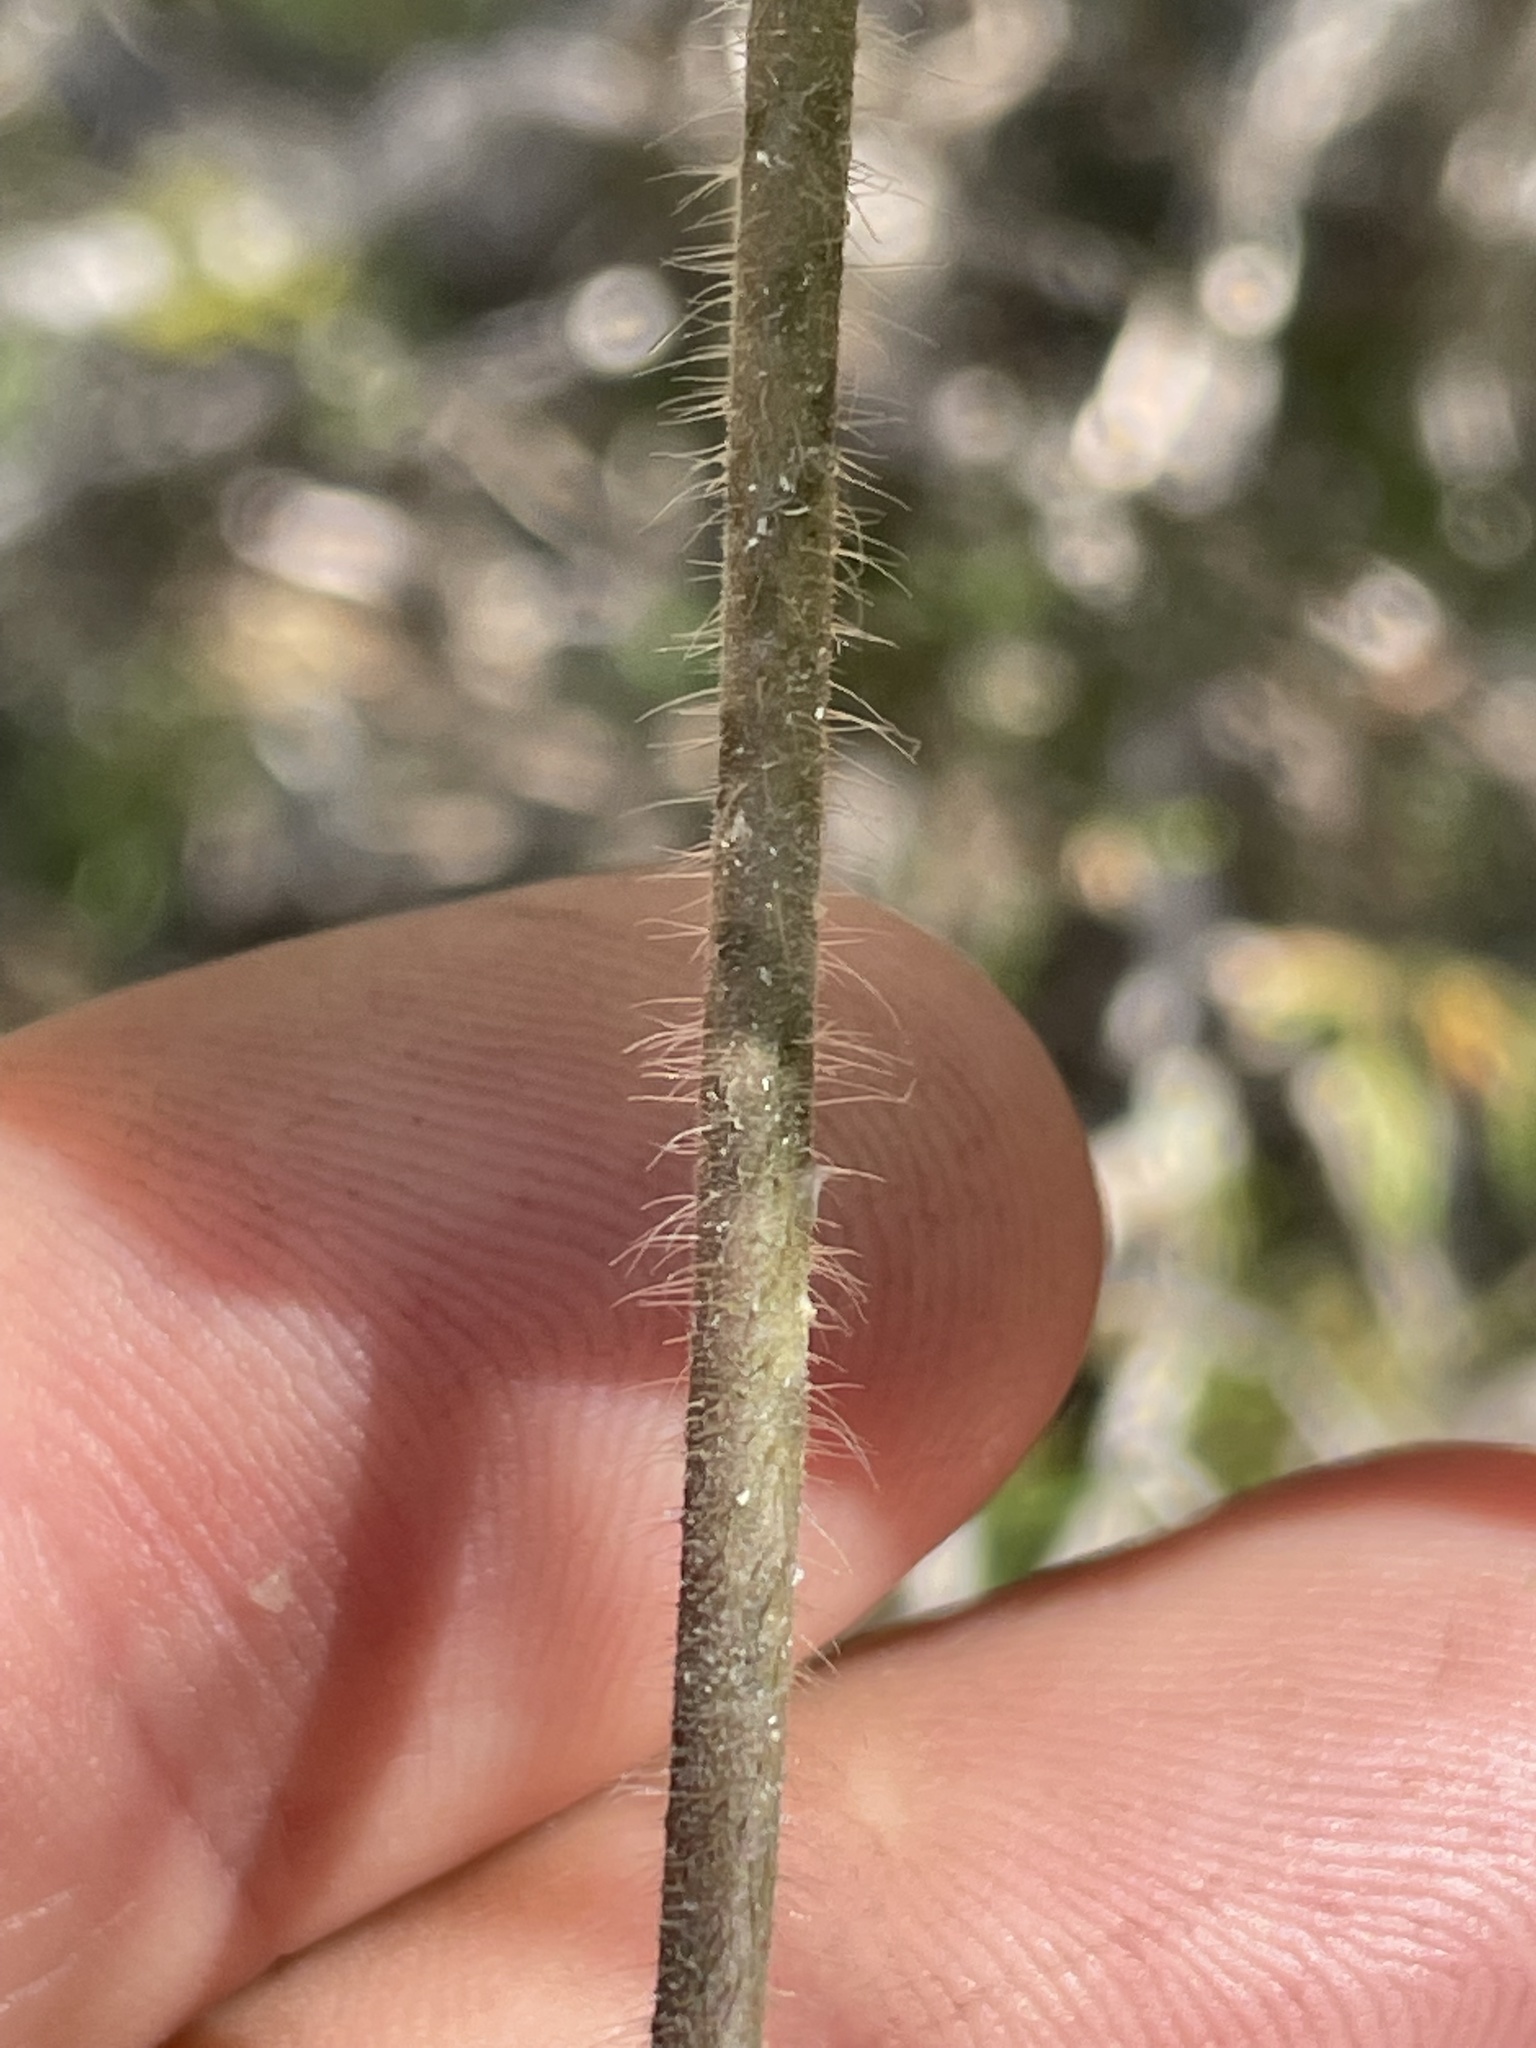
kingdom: Plantae
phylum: Tracheophyta
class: Magnoliopsida
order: Gentianales
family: Apocynaceae
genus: Dictyanthus
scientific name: Dictyanthus reticulatus
